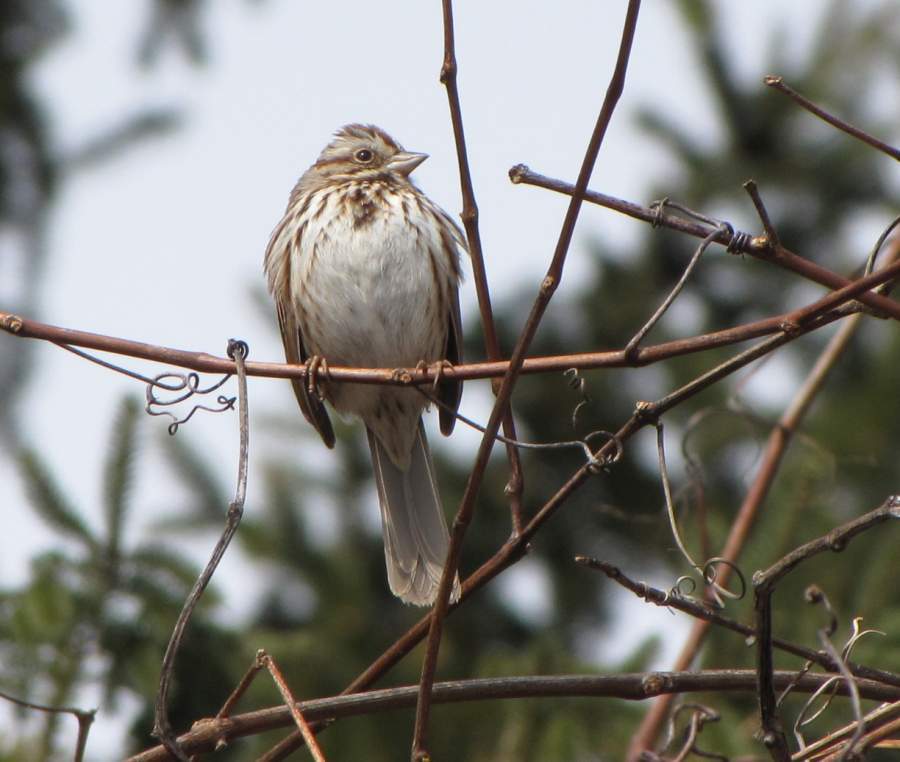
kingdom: Animalia
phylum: Chordata
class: Aves
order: Passeriformes
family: Passerellidae
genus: Melospiza
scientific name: Melospiza melodia
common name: Song sparrow
